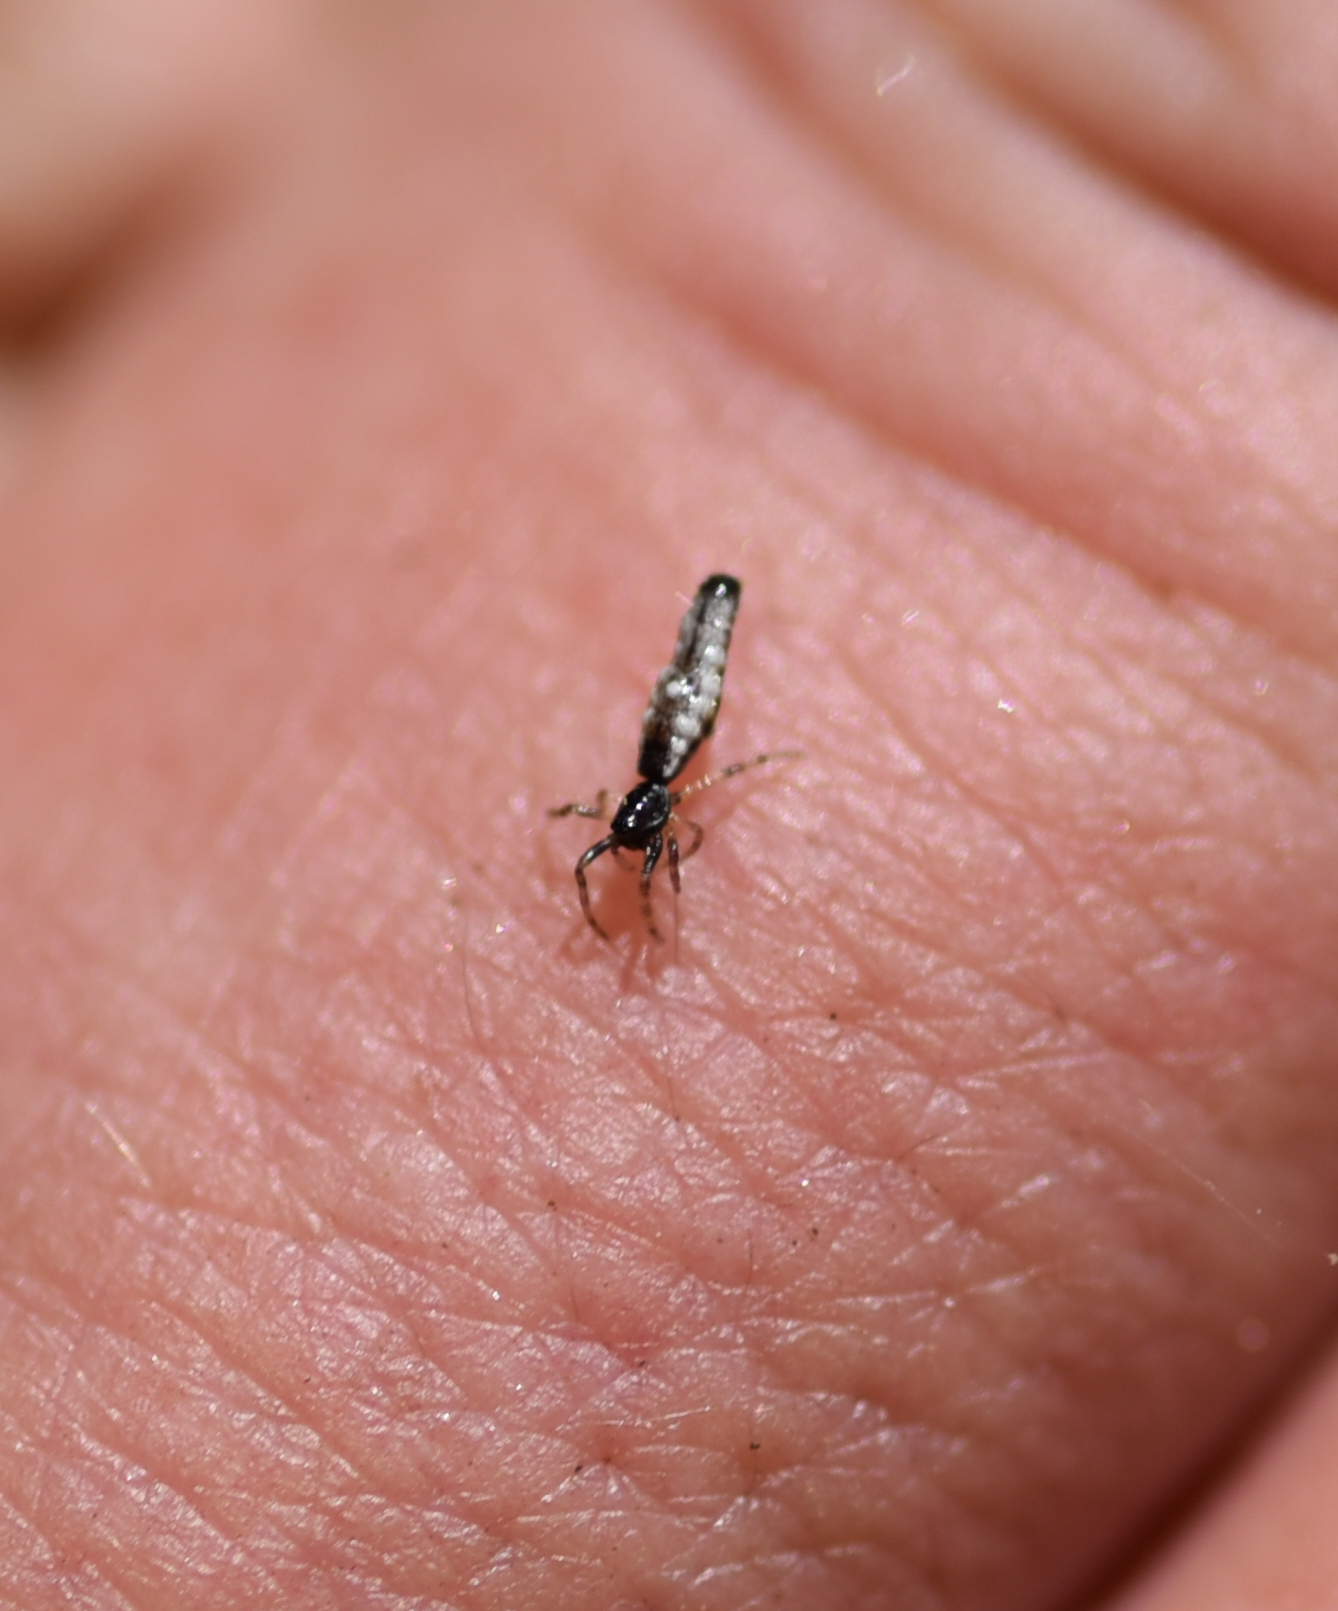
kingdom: Animalia
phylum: Arthropoda
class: Arachnida
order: Araneae
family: Araneidae
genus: Micrathena
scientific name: Micrathena gracilis
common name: Orb weavers
